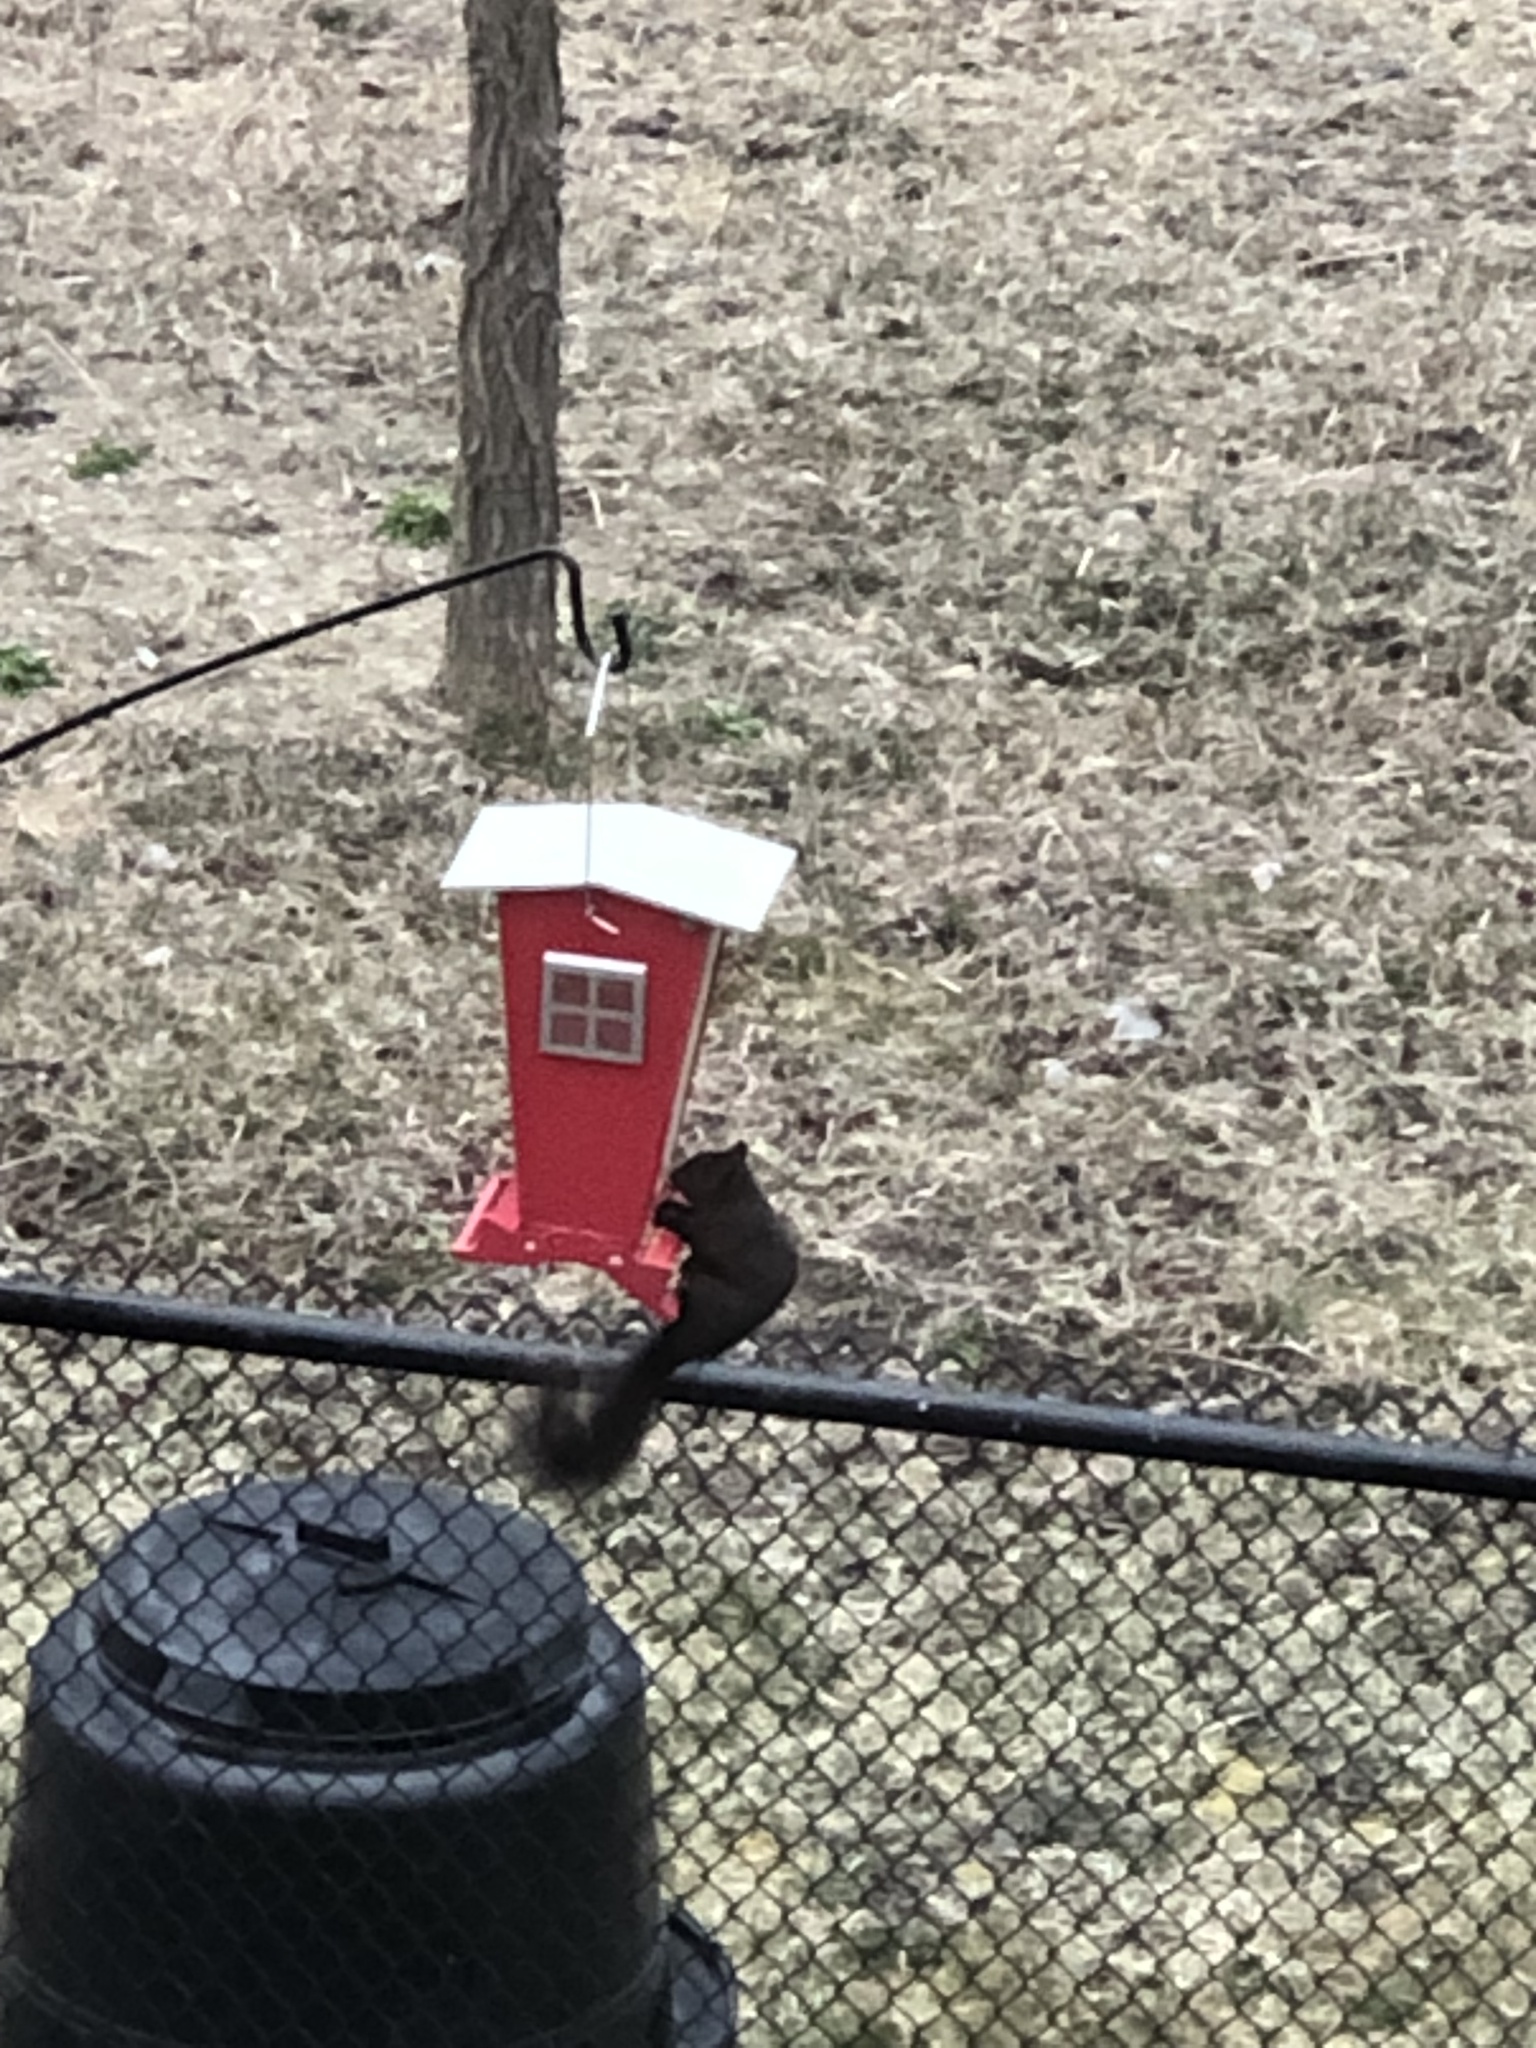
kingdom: Animalia
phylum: Chordata
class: Mammalia
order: Rodentia
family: Sciuridae
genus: Sciurus
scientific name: Sciurus carolinensis
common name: Eastern gray squirrel
